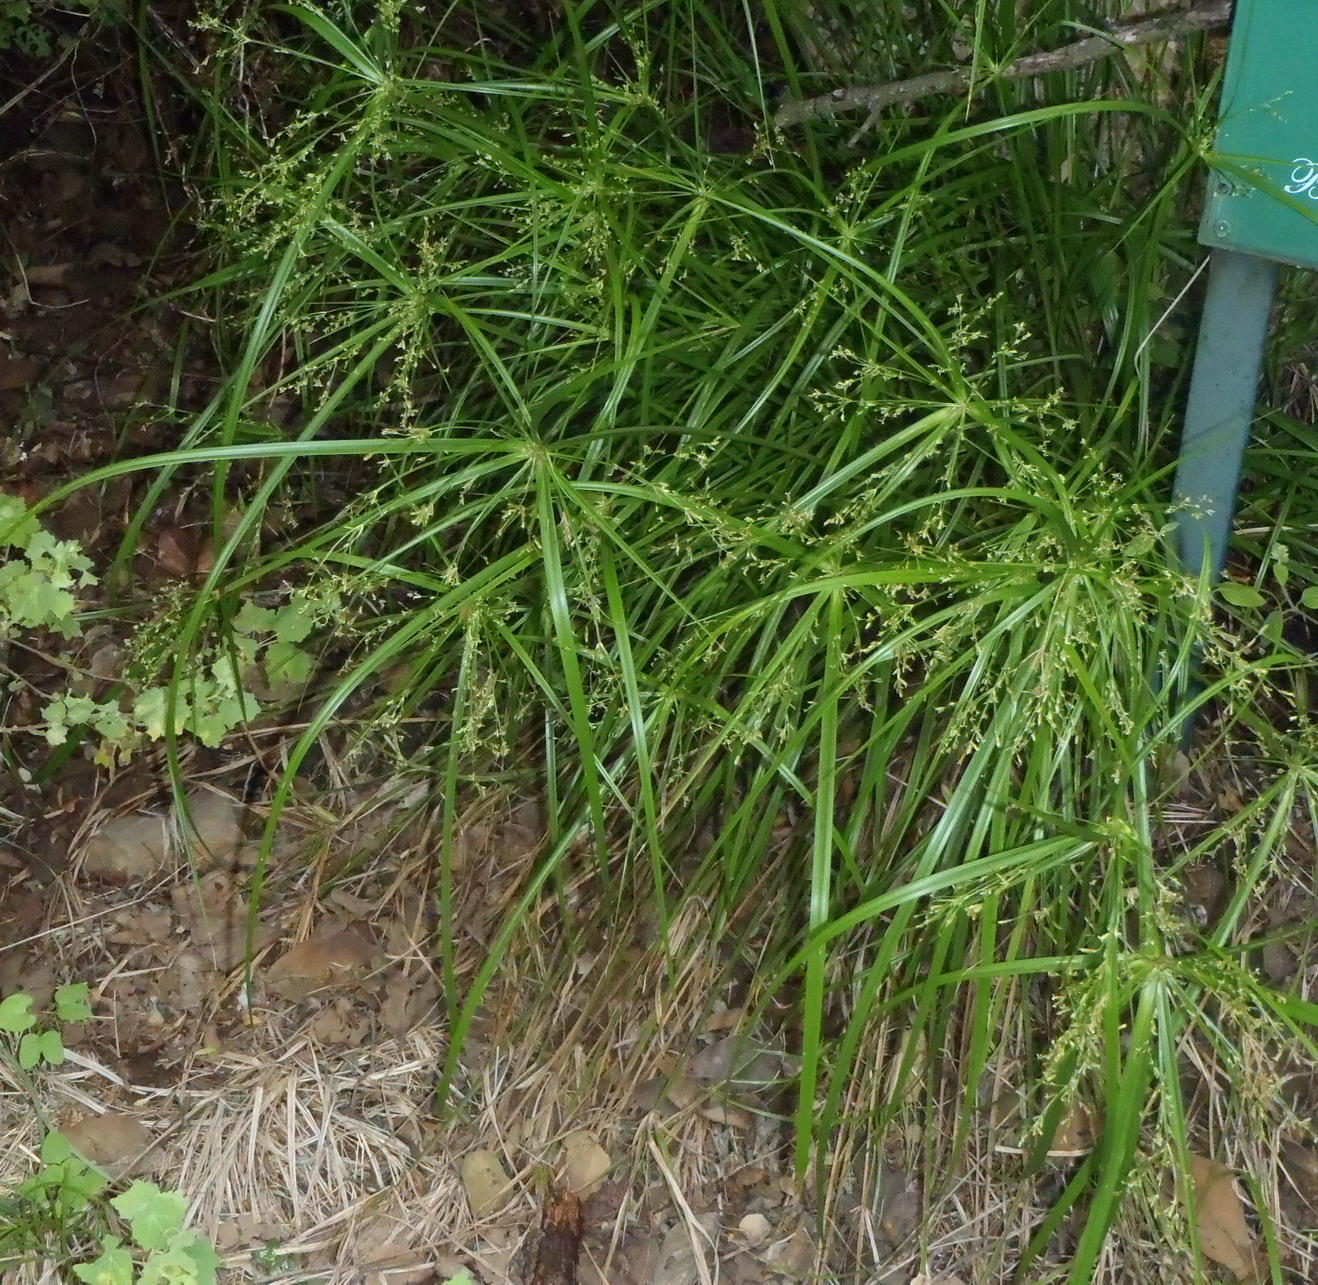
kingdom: Plantae
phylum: Tracheophyta
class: Liliopsida
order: Poales
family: Cyperaceae
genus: Cyperus
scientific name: Cyperus leptocladus
